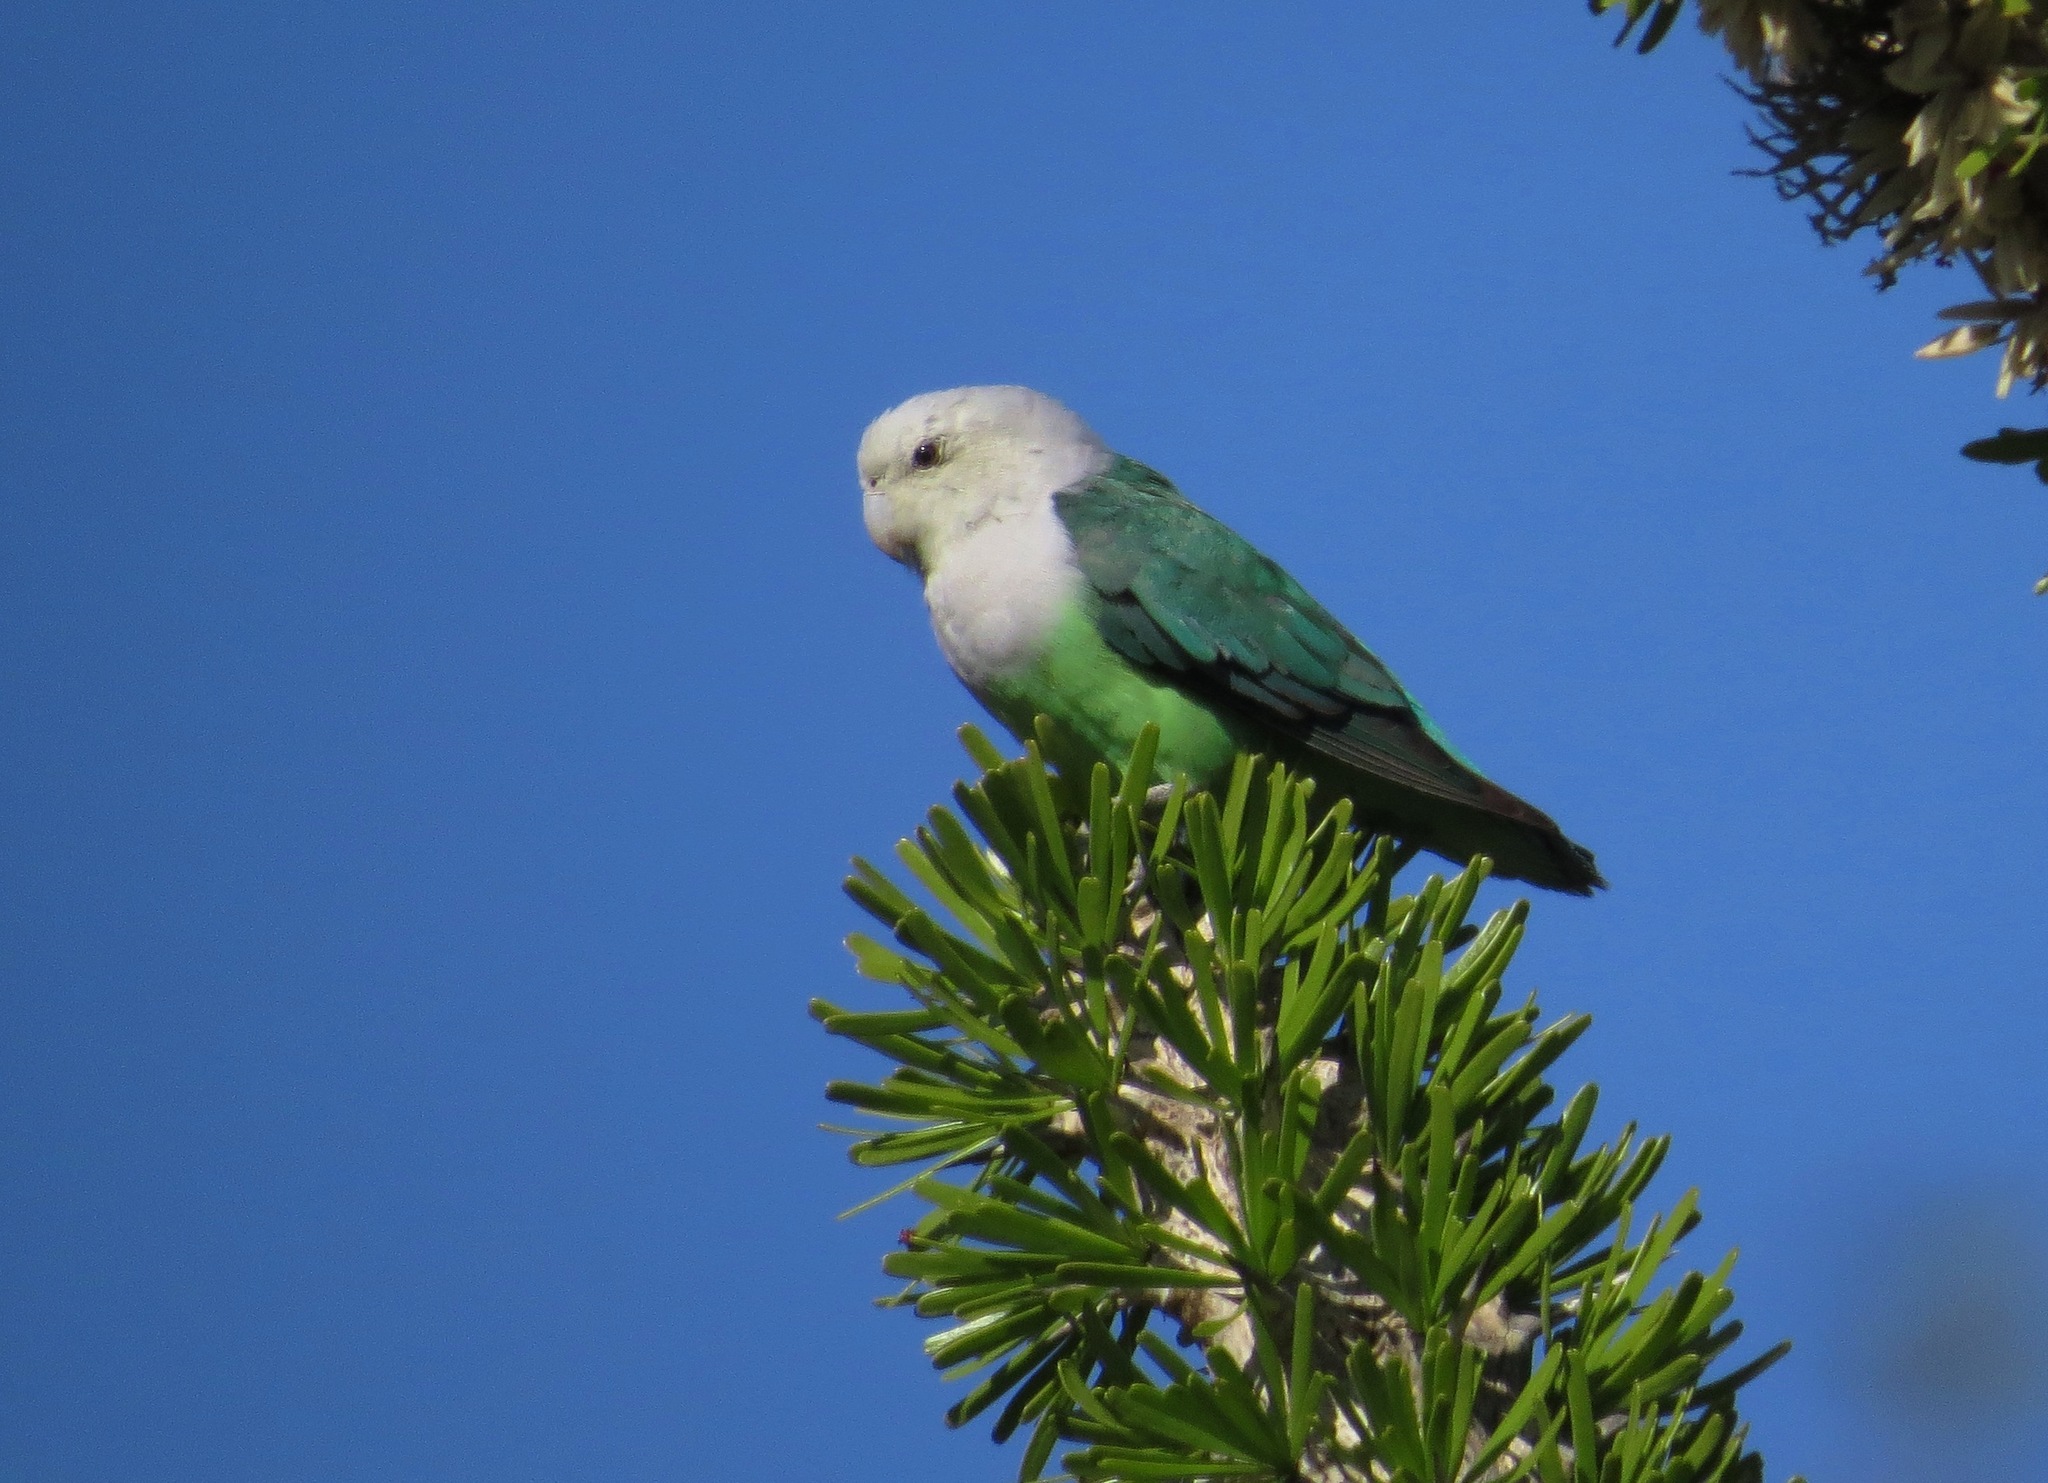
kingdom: Animalia
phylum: Chordata
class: Aves
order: Psittaciformes
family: Psittacidae
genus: Agapornis
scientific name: Agapornis canus
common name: Grey-headed lovebird
